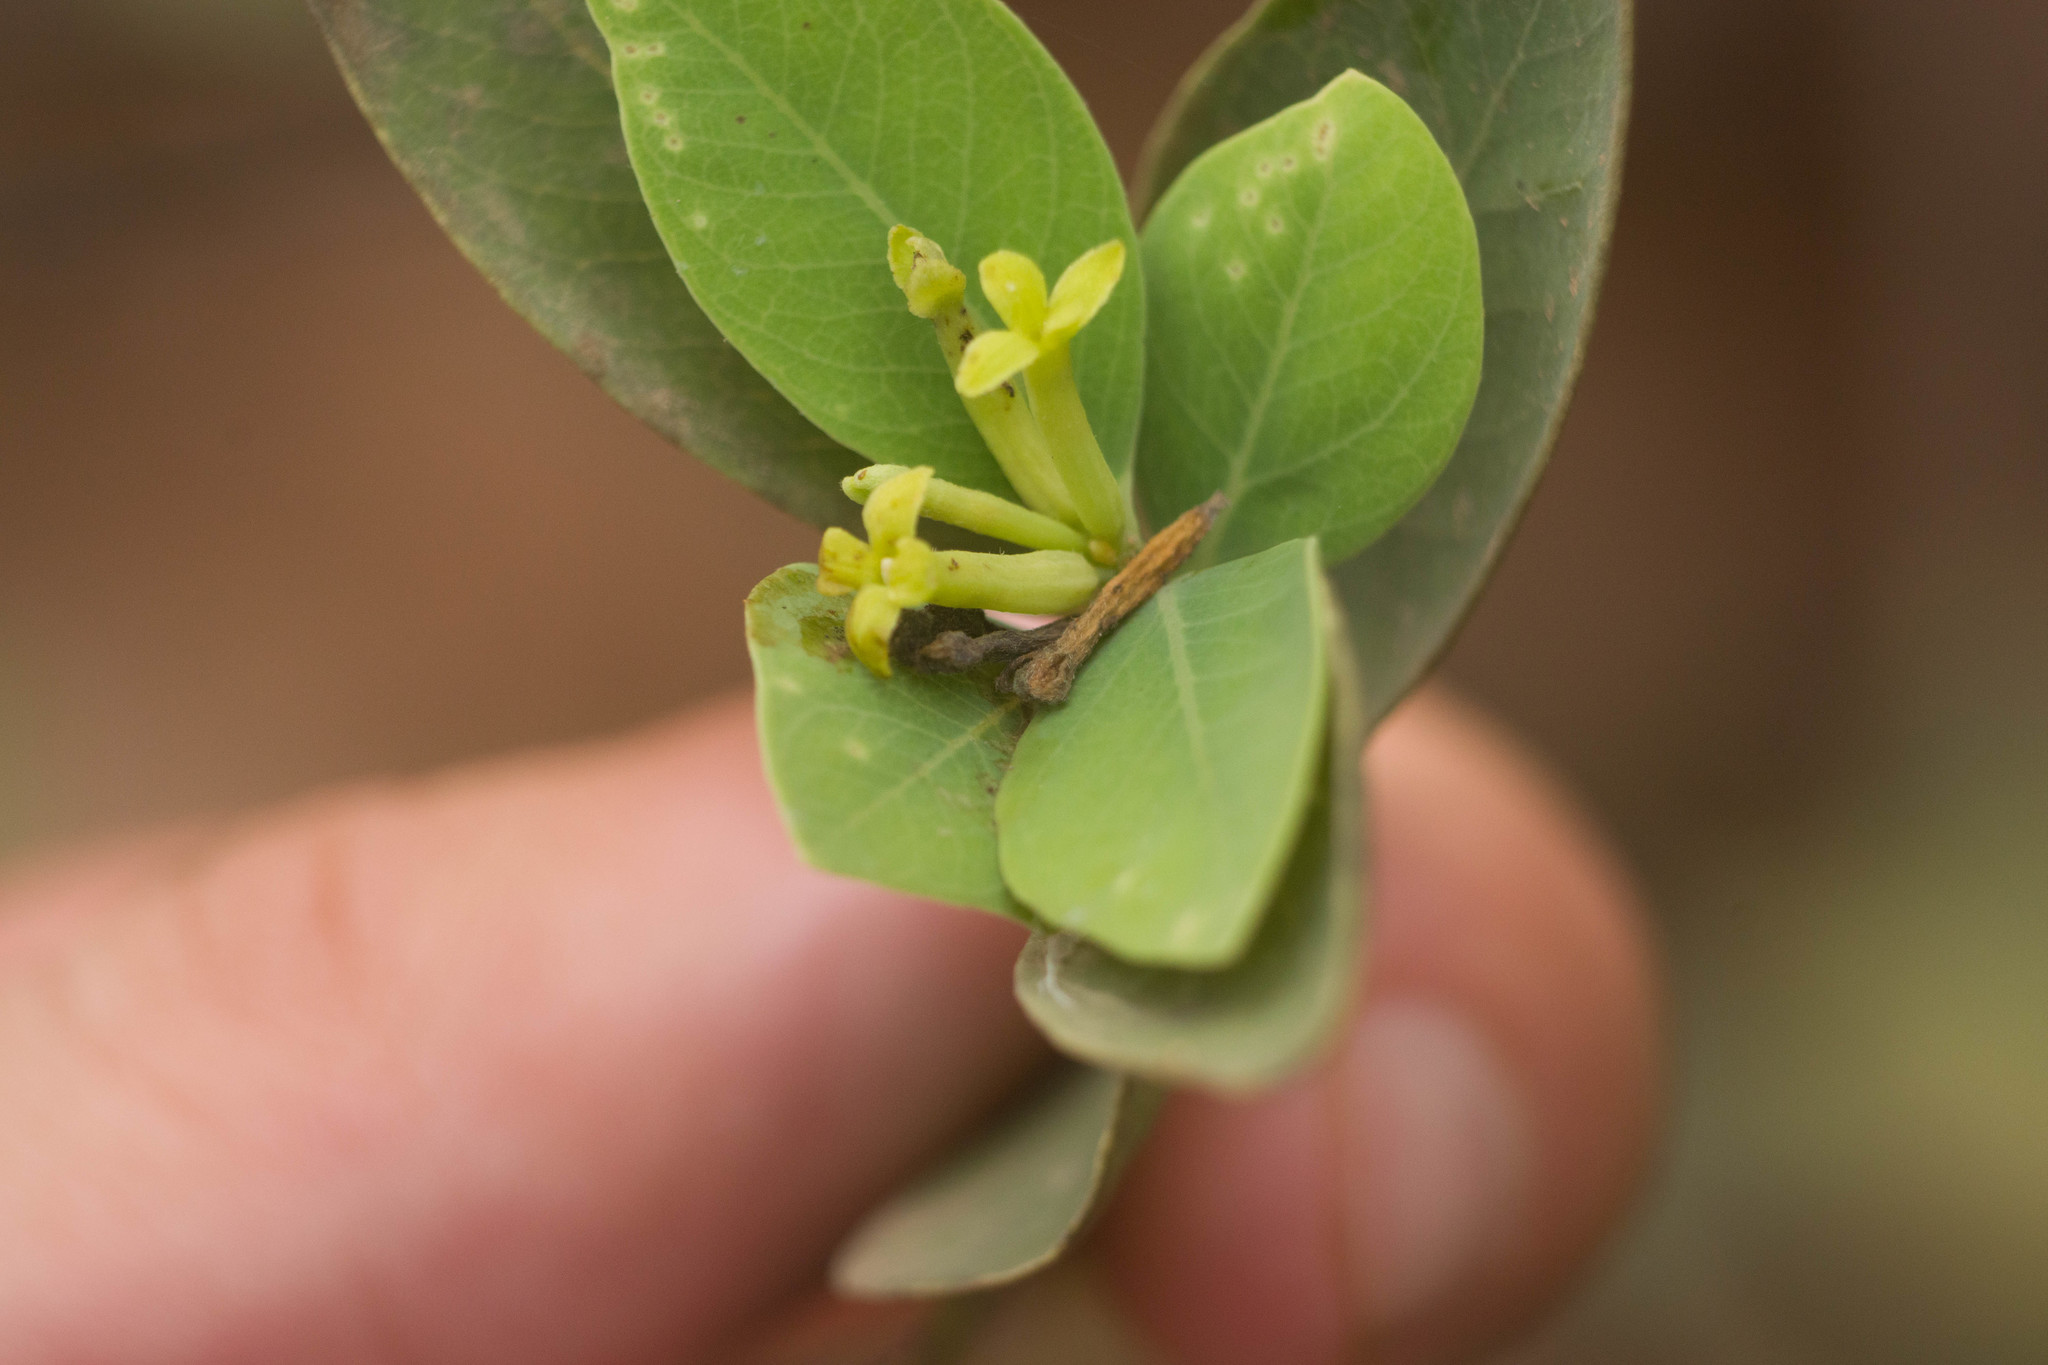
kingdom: Plantae
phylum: Tracheophyta
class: Magnoliopsida
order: Malvales
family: Thymelaeaceae
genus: Wikstroemia
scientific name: Wikstroemia oahuensis
